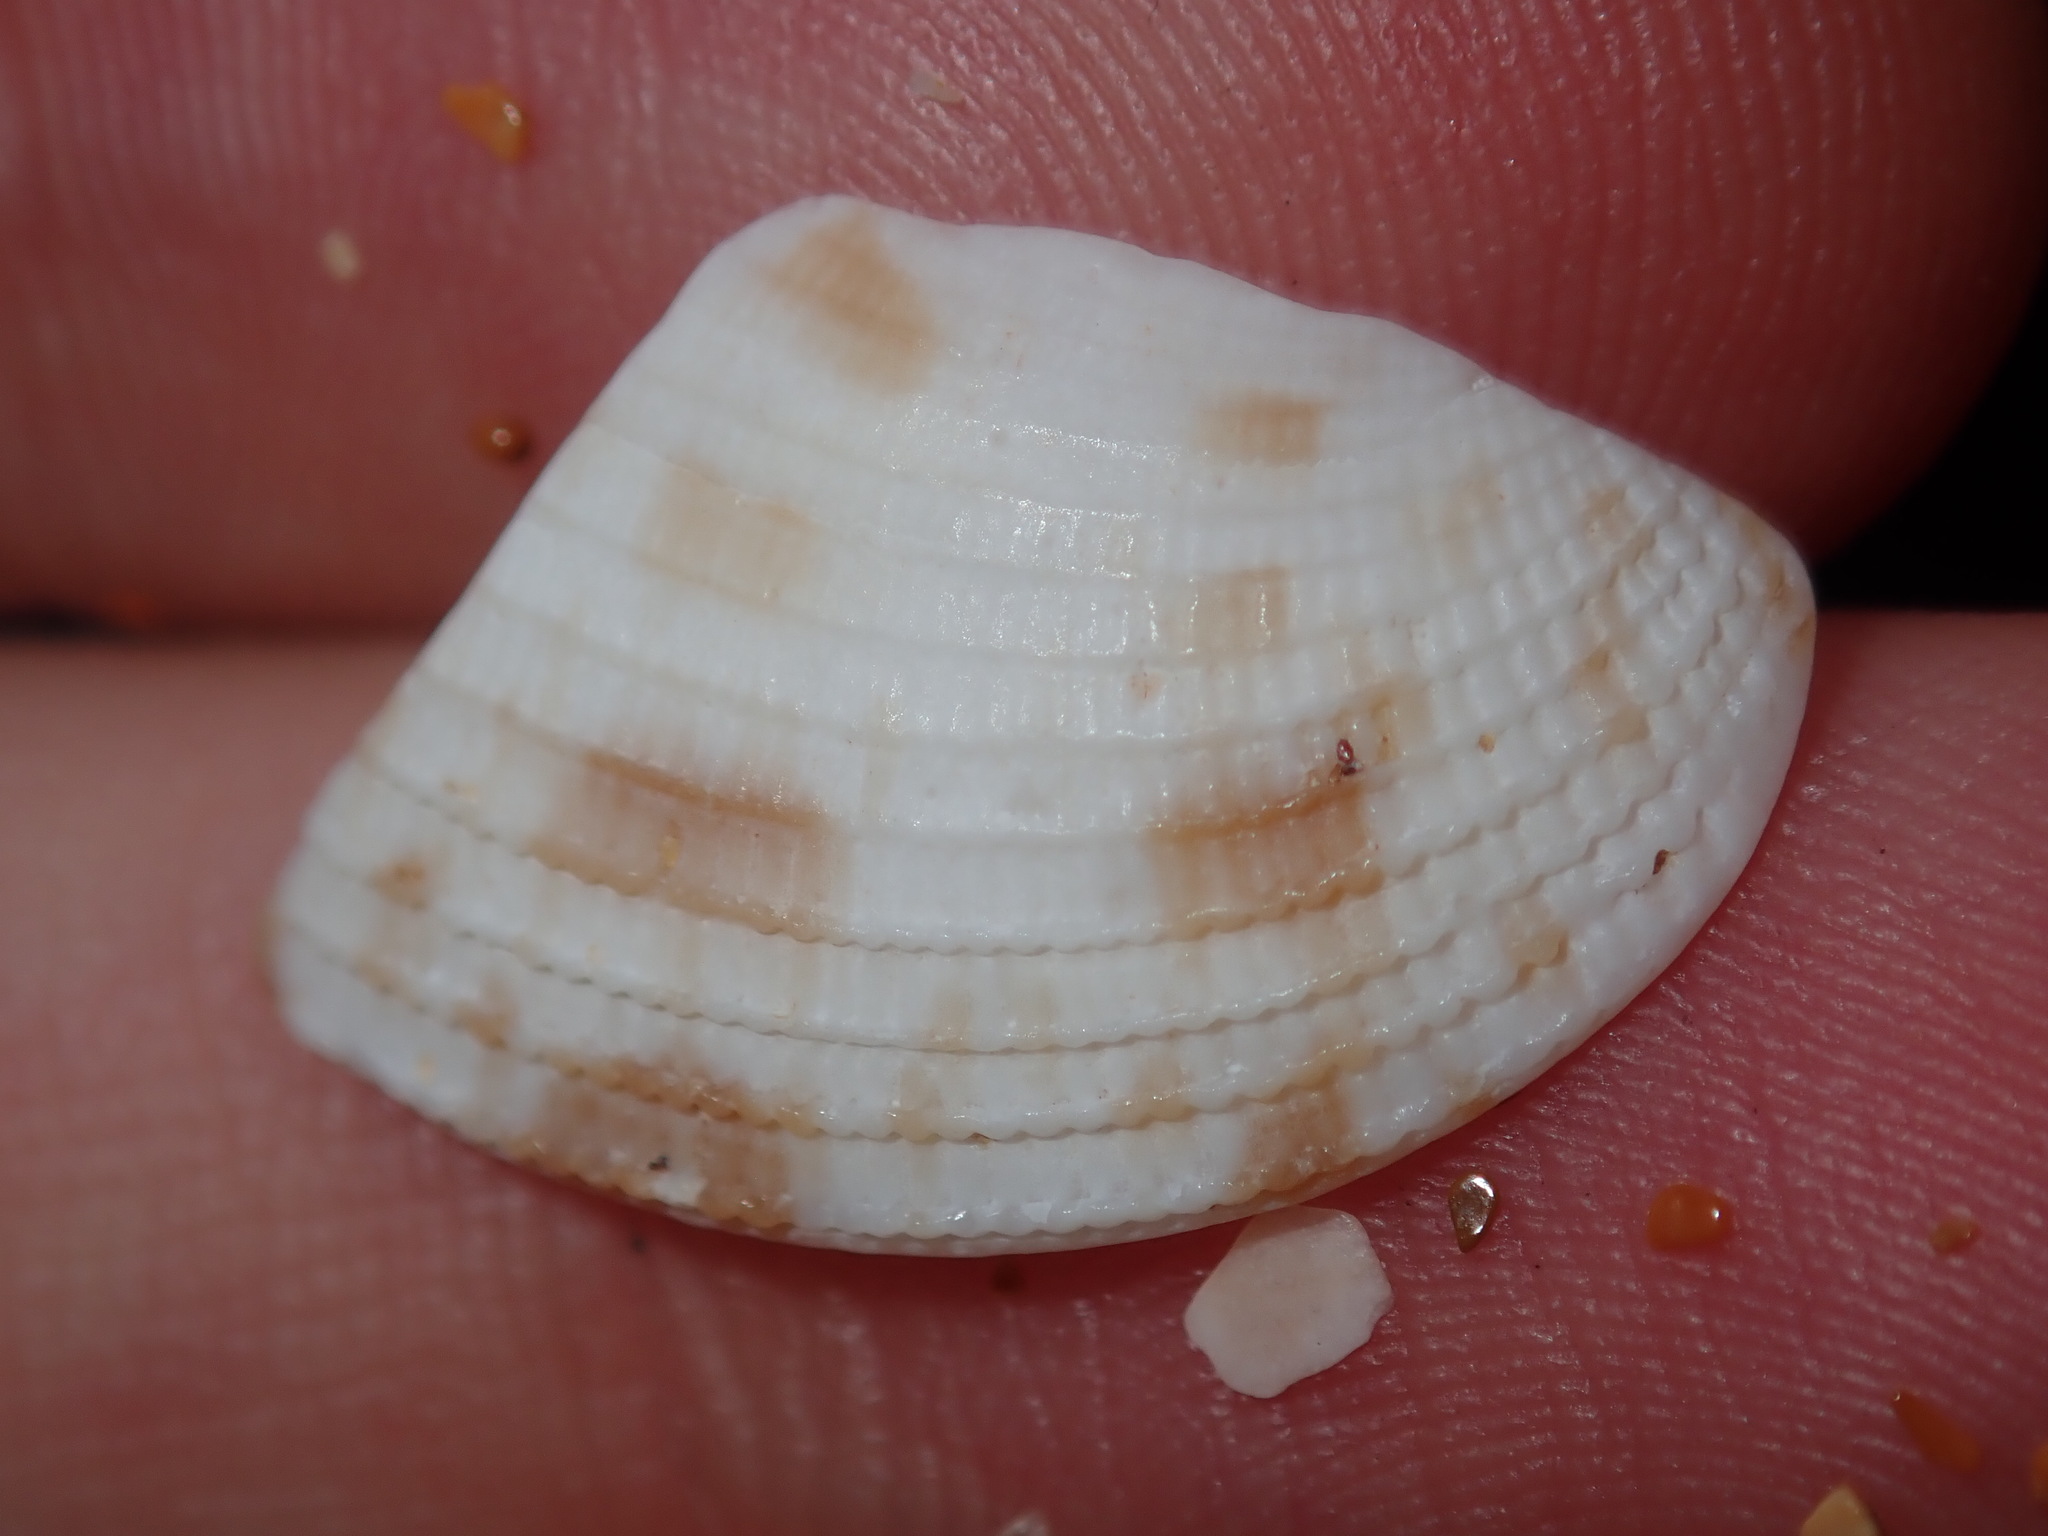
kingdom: Animalia
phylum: Mollusca
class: Bivalvia
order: Venerida
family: Veneridae
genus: Antigona
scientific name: Antigona persimilis
